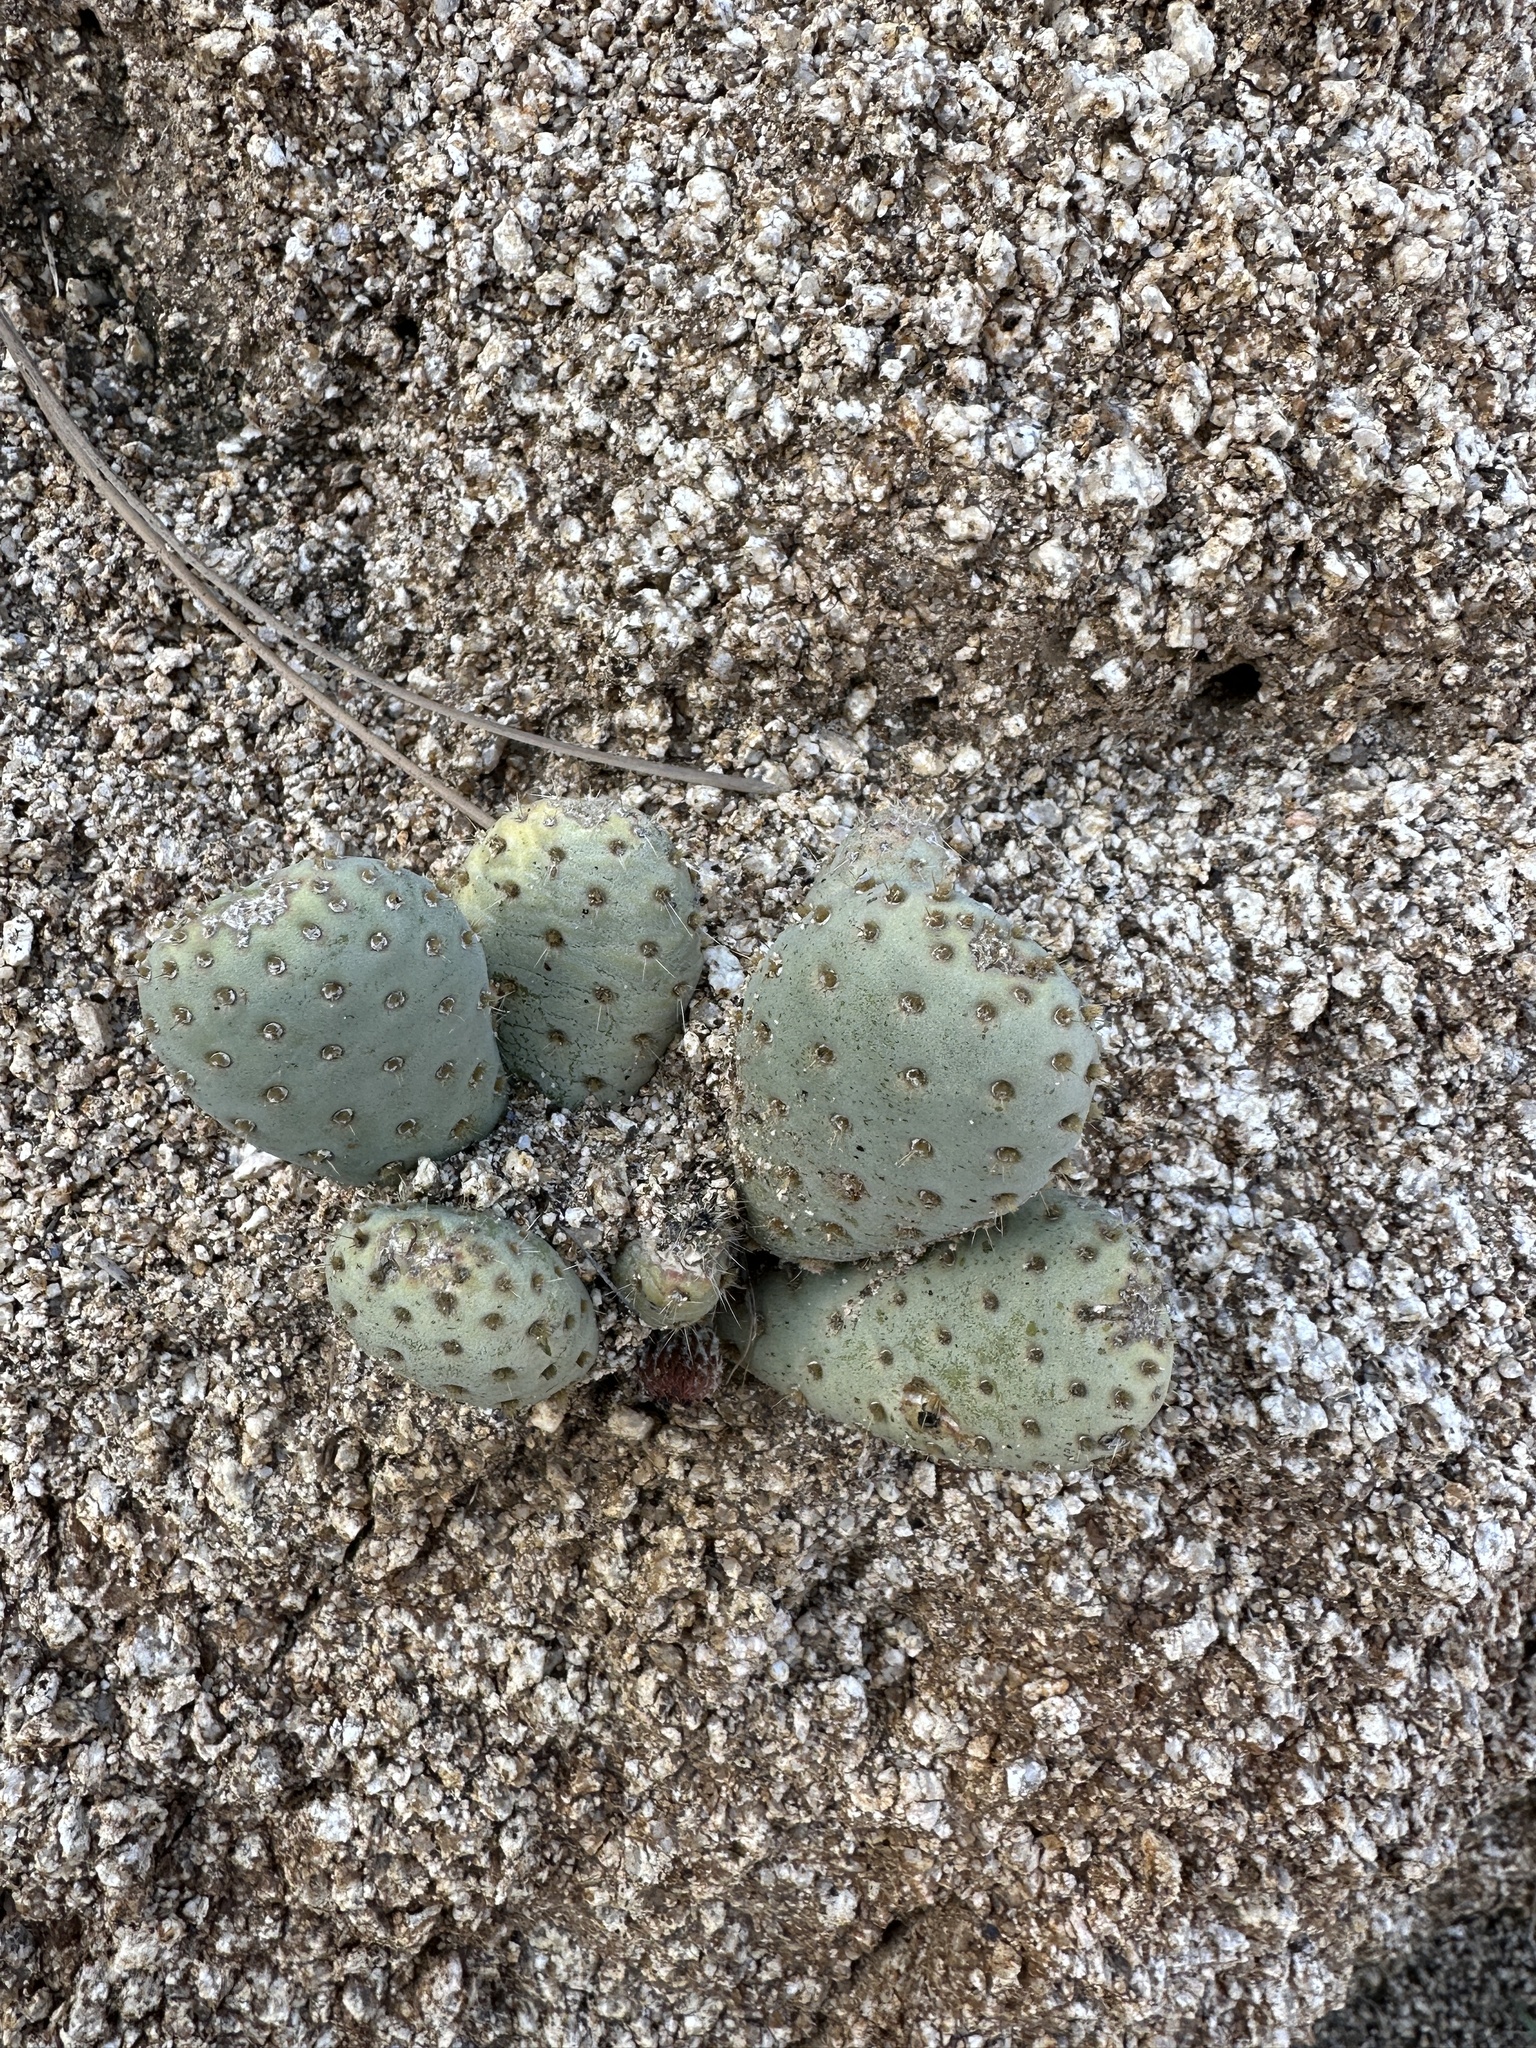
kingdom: Plantae
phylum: Tracheophyta
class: Magnoliopsida
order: Caryophyllales
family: Cactaceae
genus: Opuntia
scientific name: Opuntia basilaris
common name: Beavertail prickly-pear
